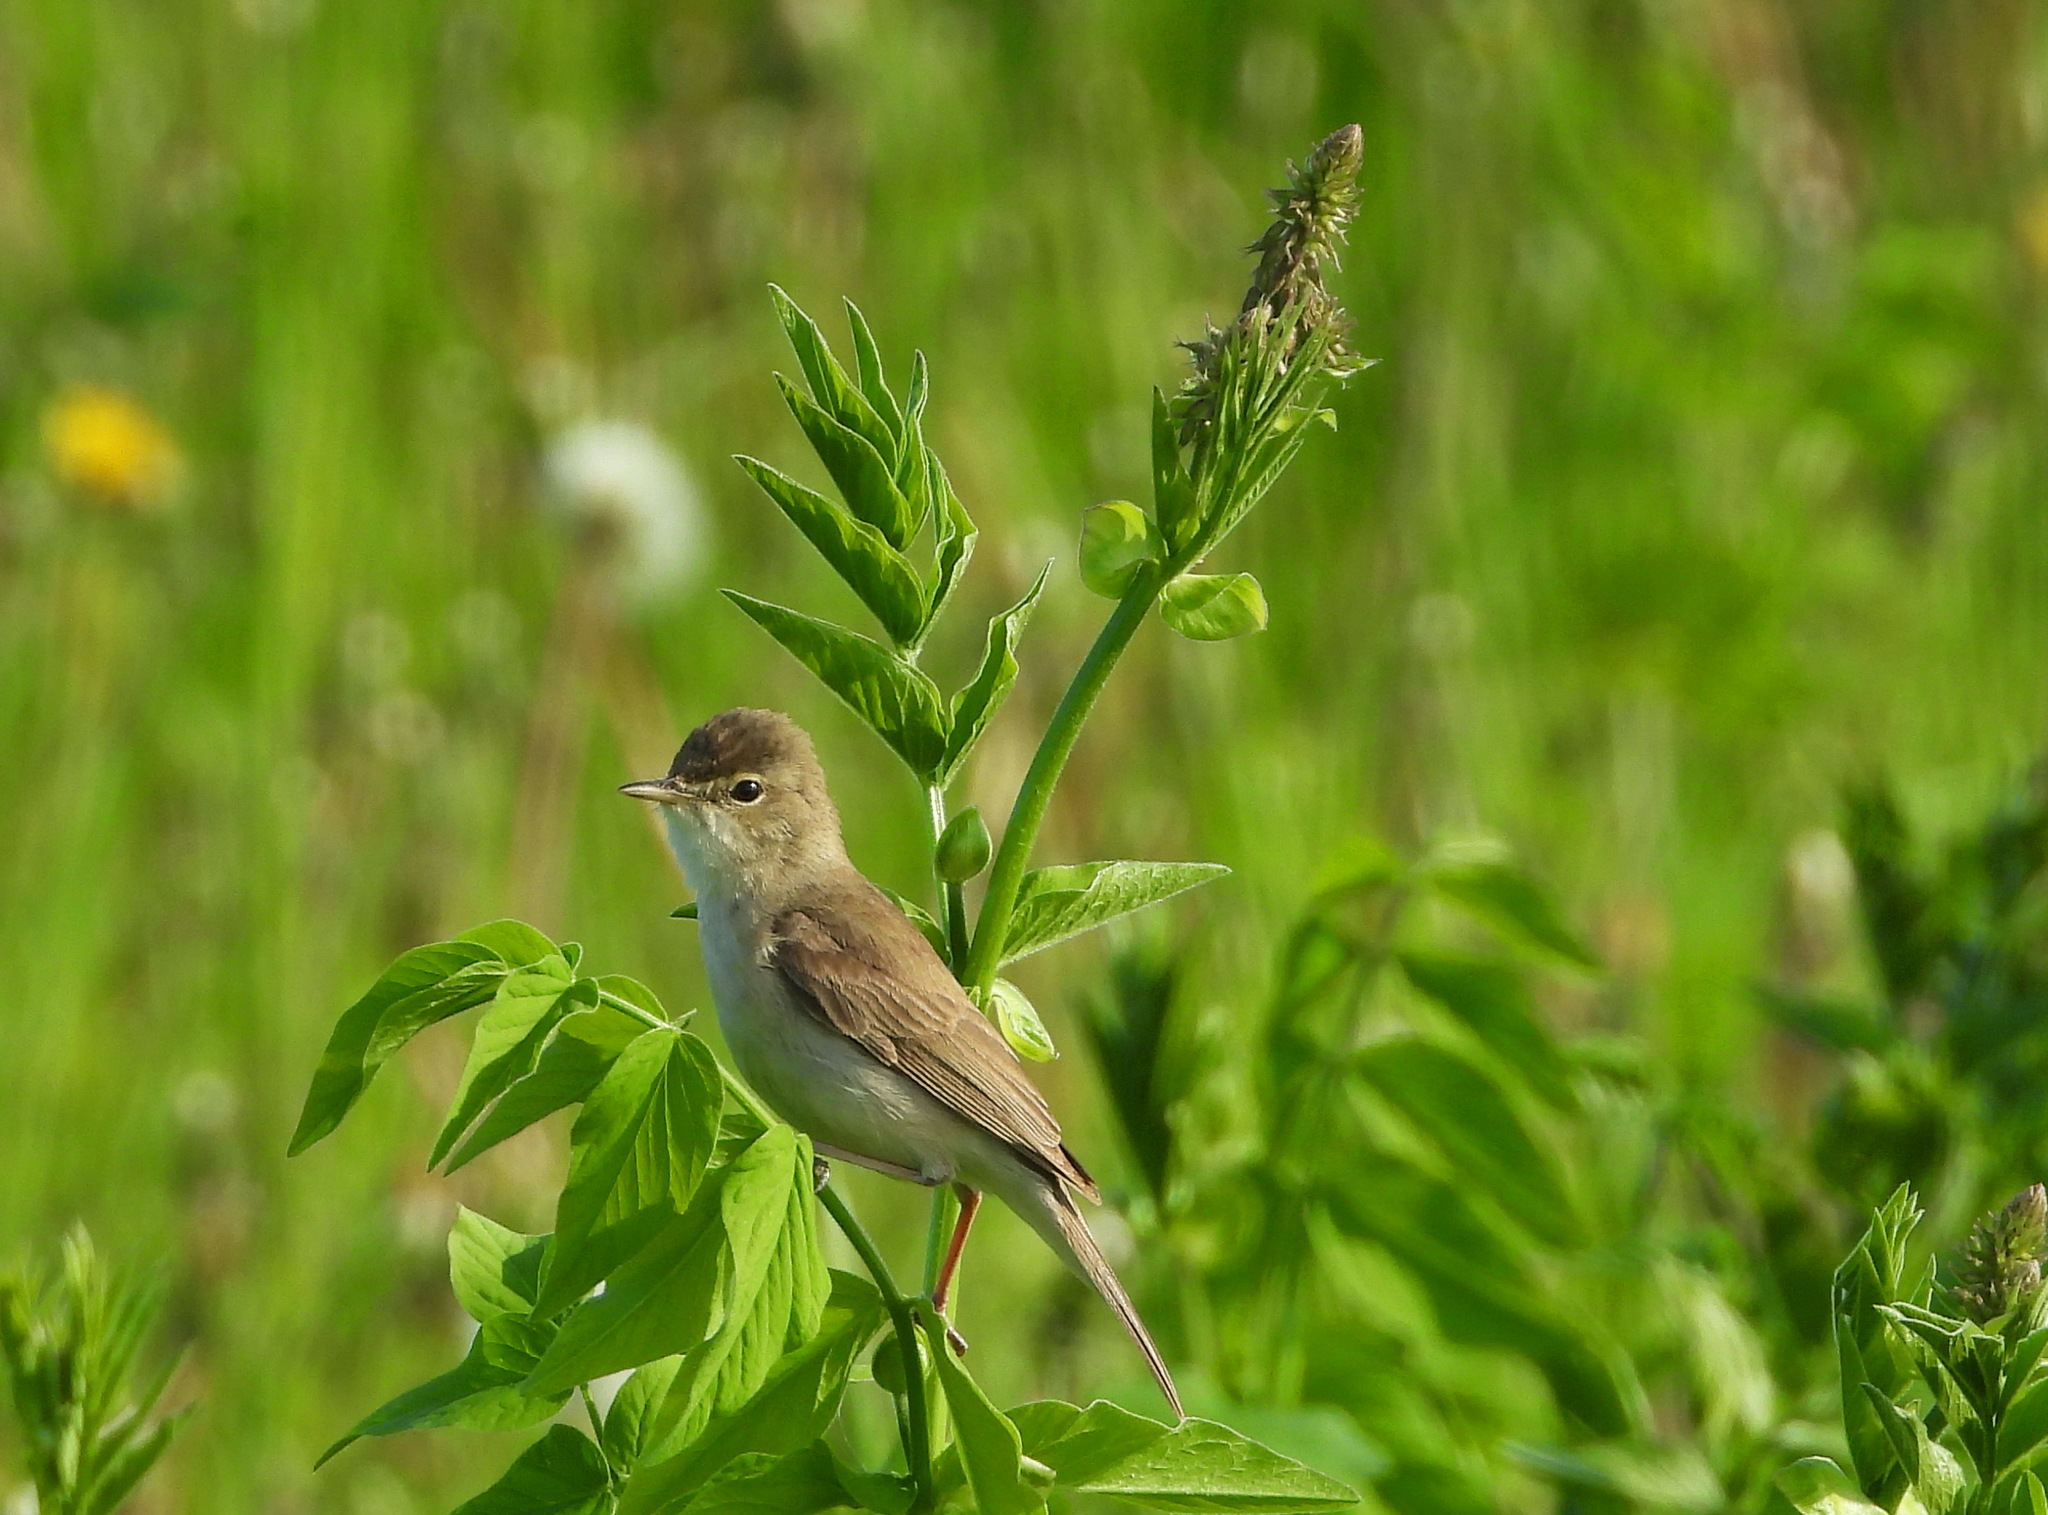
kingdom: Animalia
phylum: Chordata
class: Aves
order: Passeriformes
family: Acrocephalidae
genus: Iduna
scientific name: Iduna caligata
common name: Booted warbler
